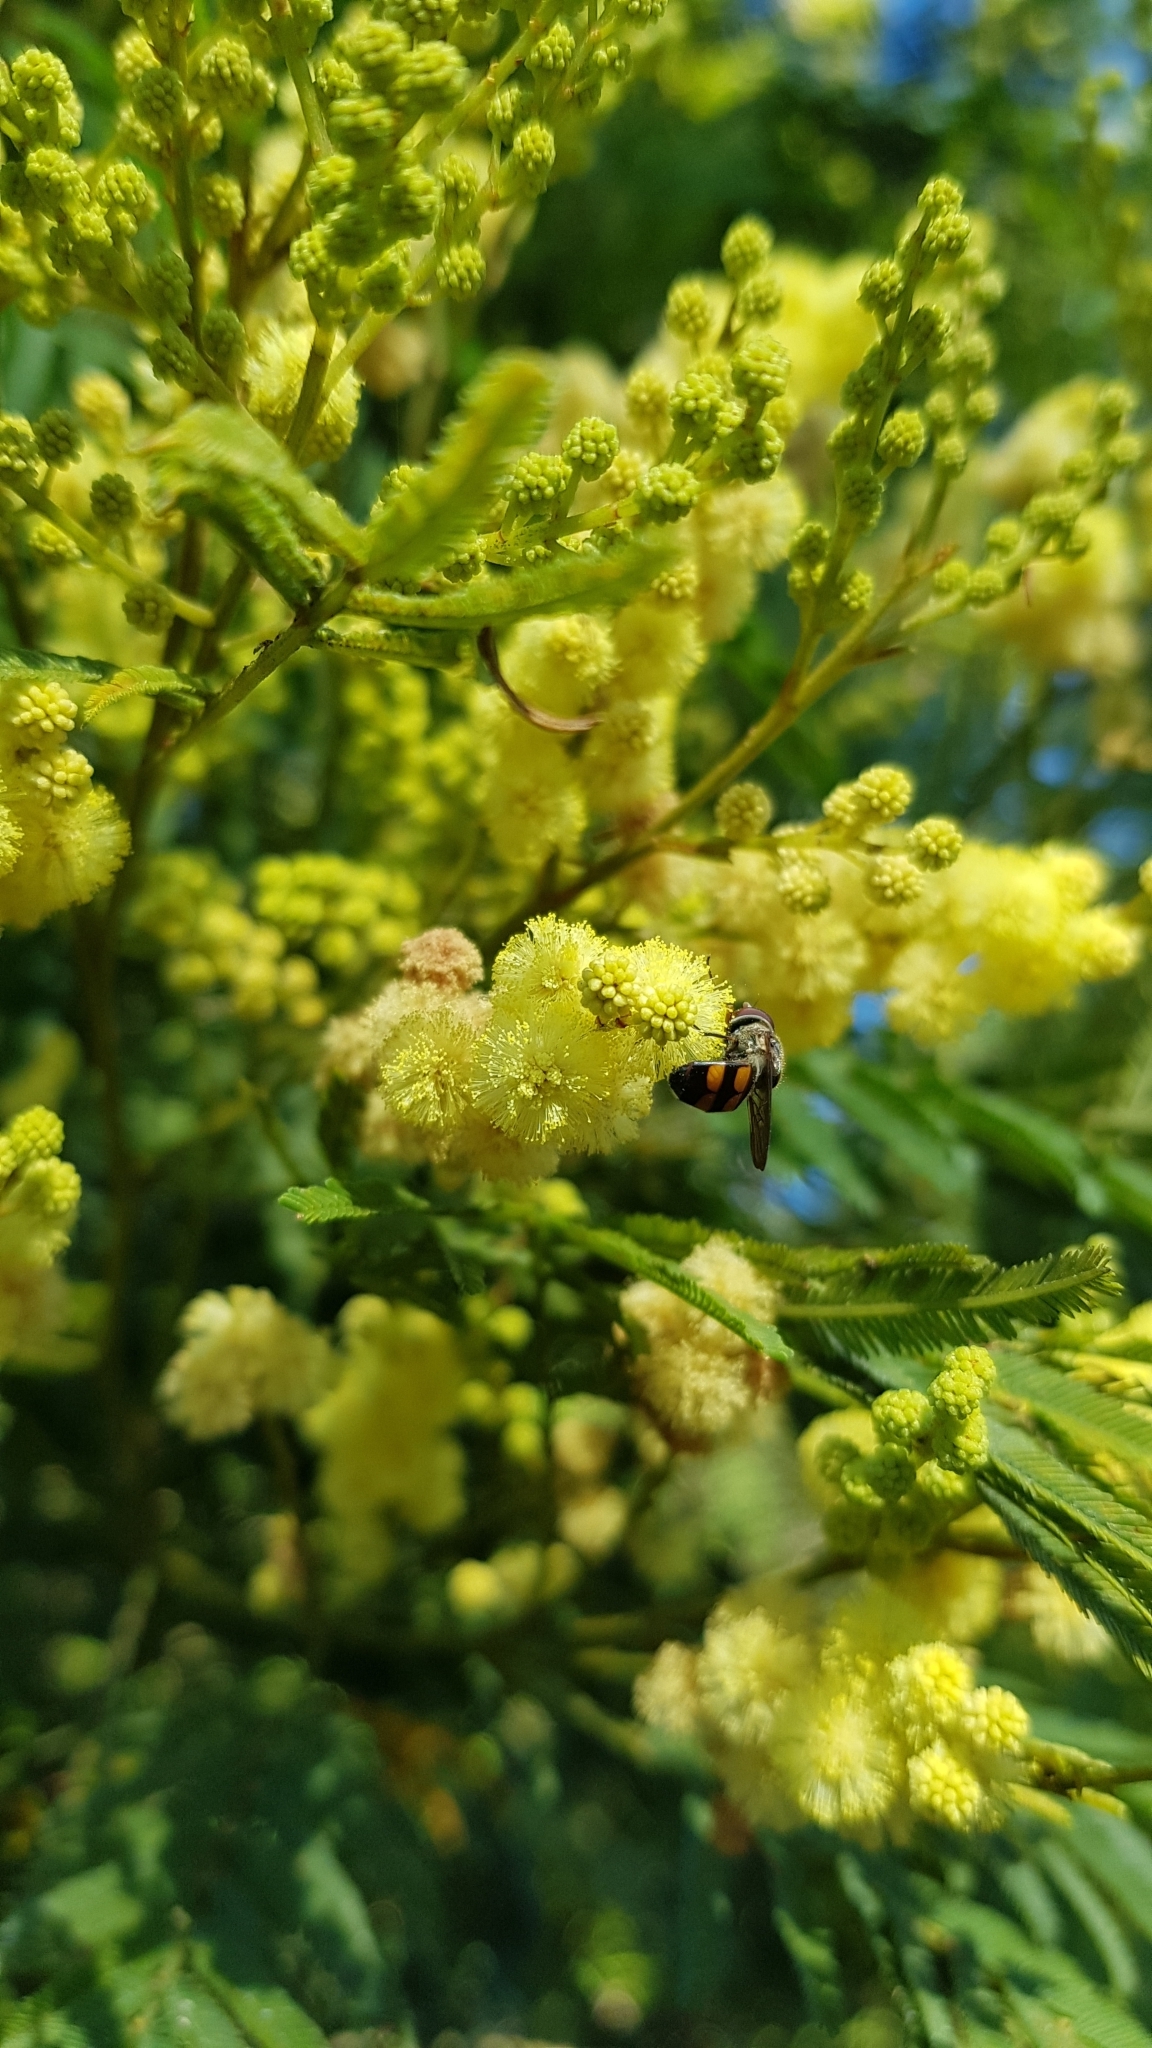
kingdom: Animalia
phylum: Arthropoda
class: Insecta
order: Diptera
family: Syrphidae
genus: Xanthandrus
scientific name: Xanthandrus agrolas
